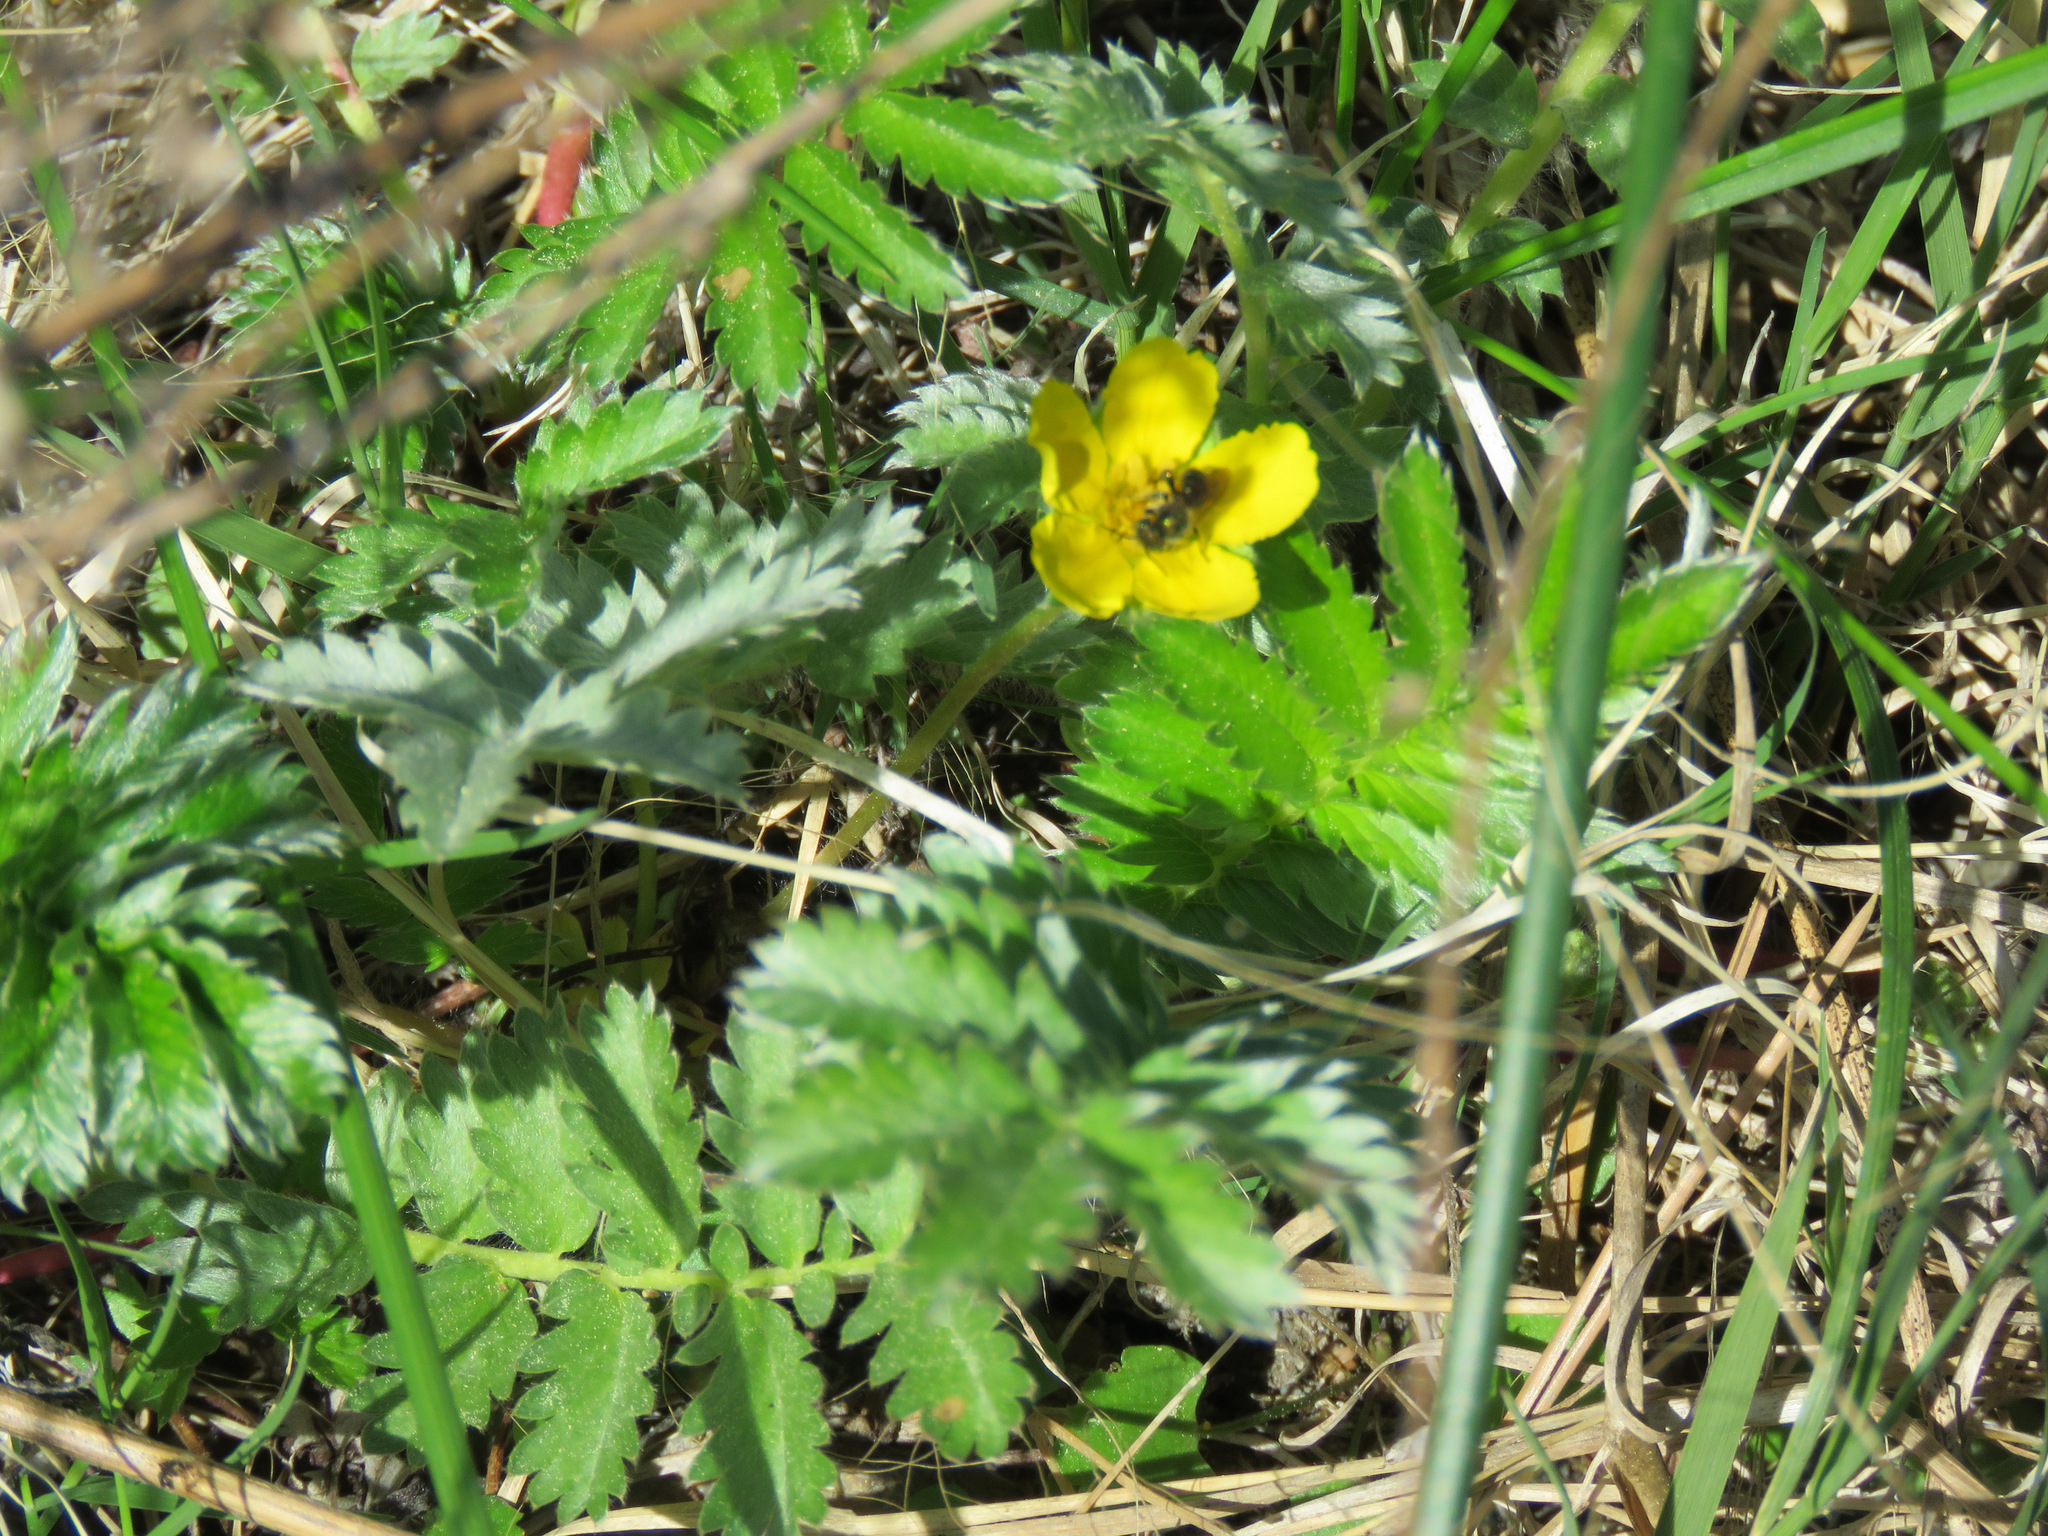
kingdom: Plantae
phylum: Tracheophyta
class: Magnoliopsida
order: Rosales
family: Rosaceae
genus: Argentina
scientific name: Argentina anserina
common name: Common silverweed
